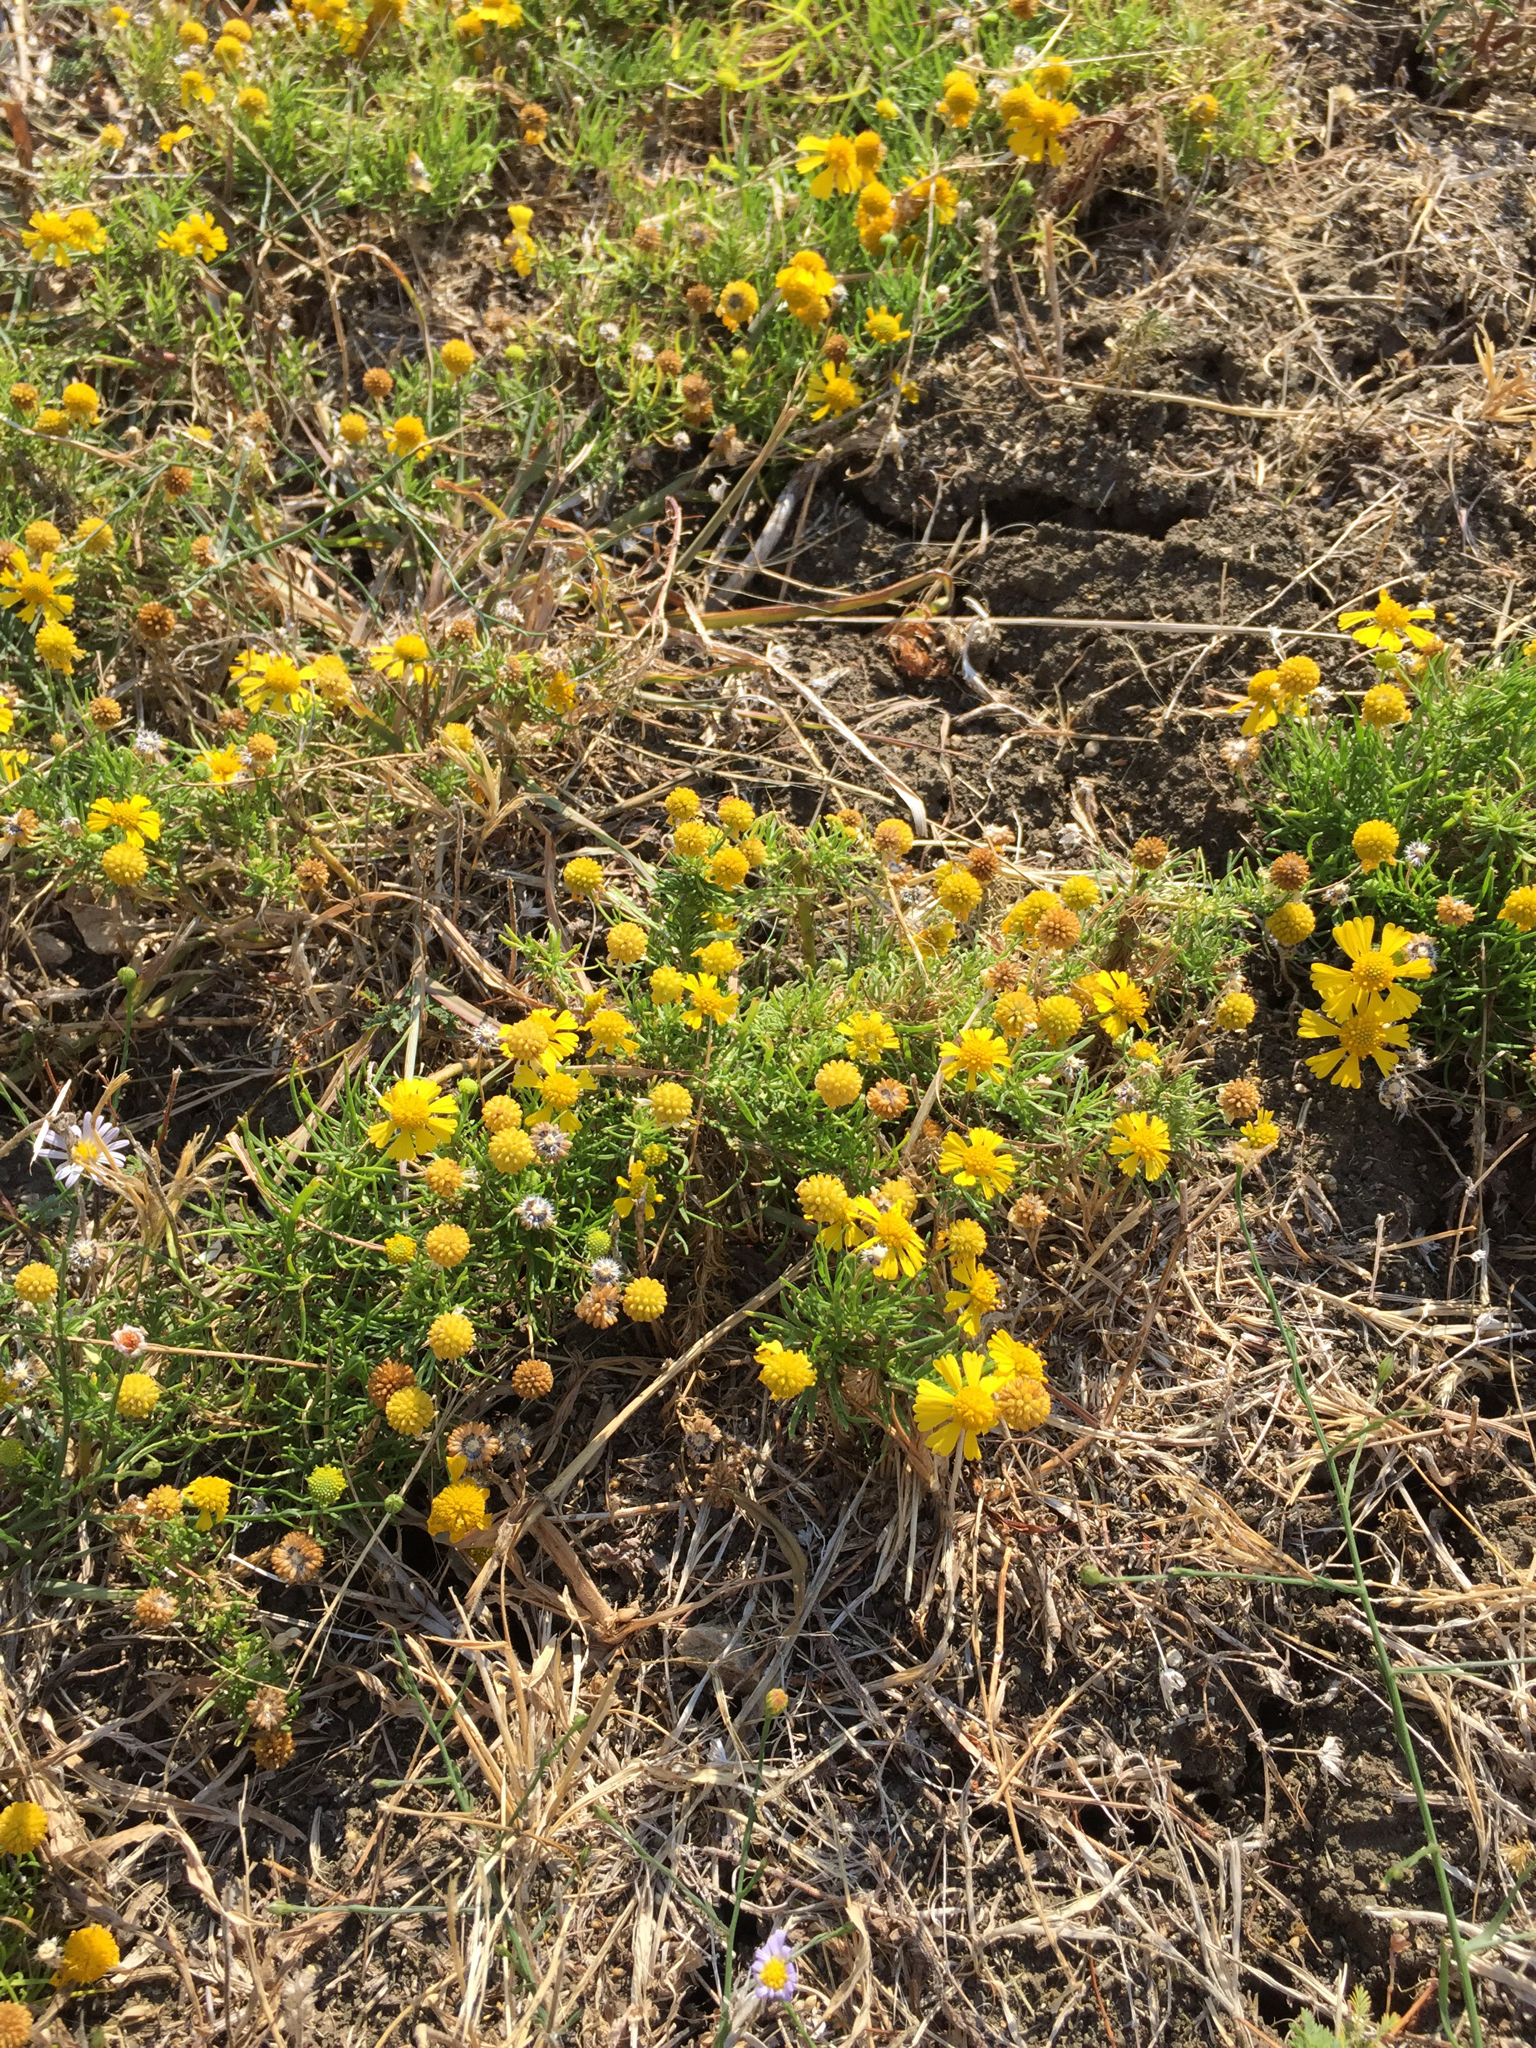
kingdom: Plantae
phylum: Tracheophyta
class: Magnoliopsida
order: Asterales
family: Asteraceae
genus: Helenium
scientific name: Helenium amarum
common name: Bitter sneezeweed
